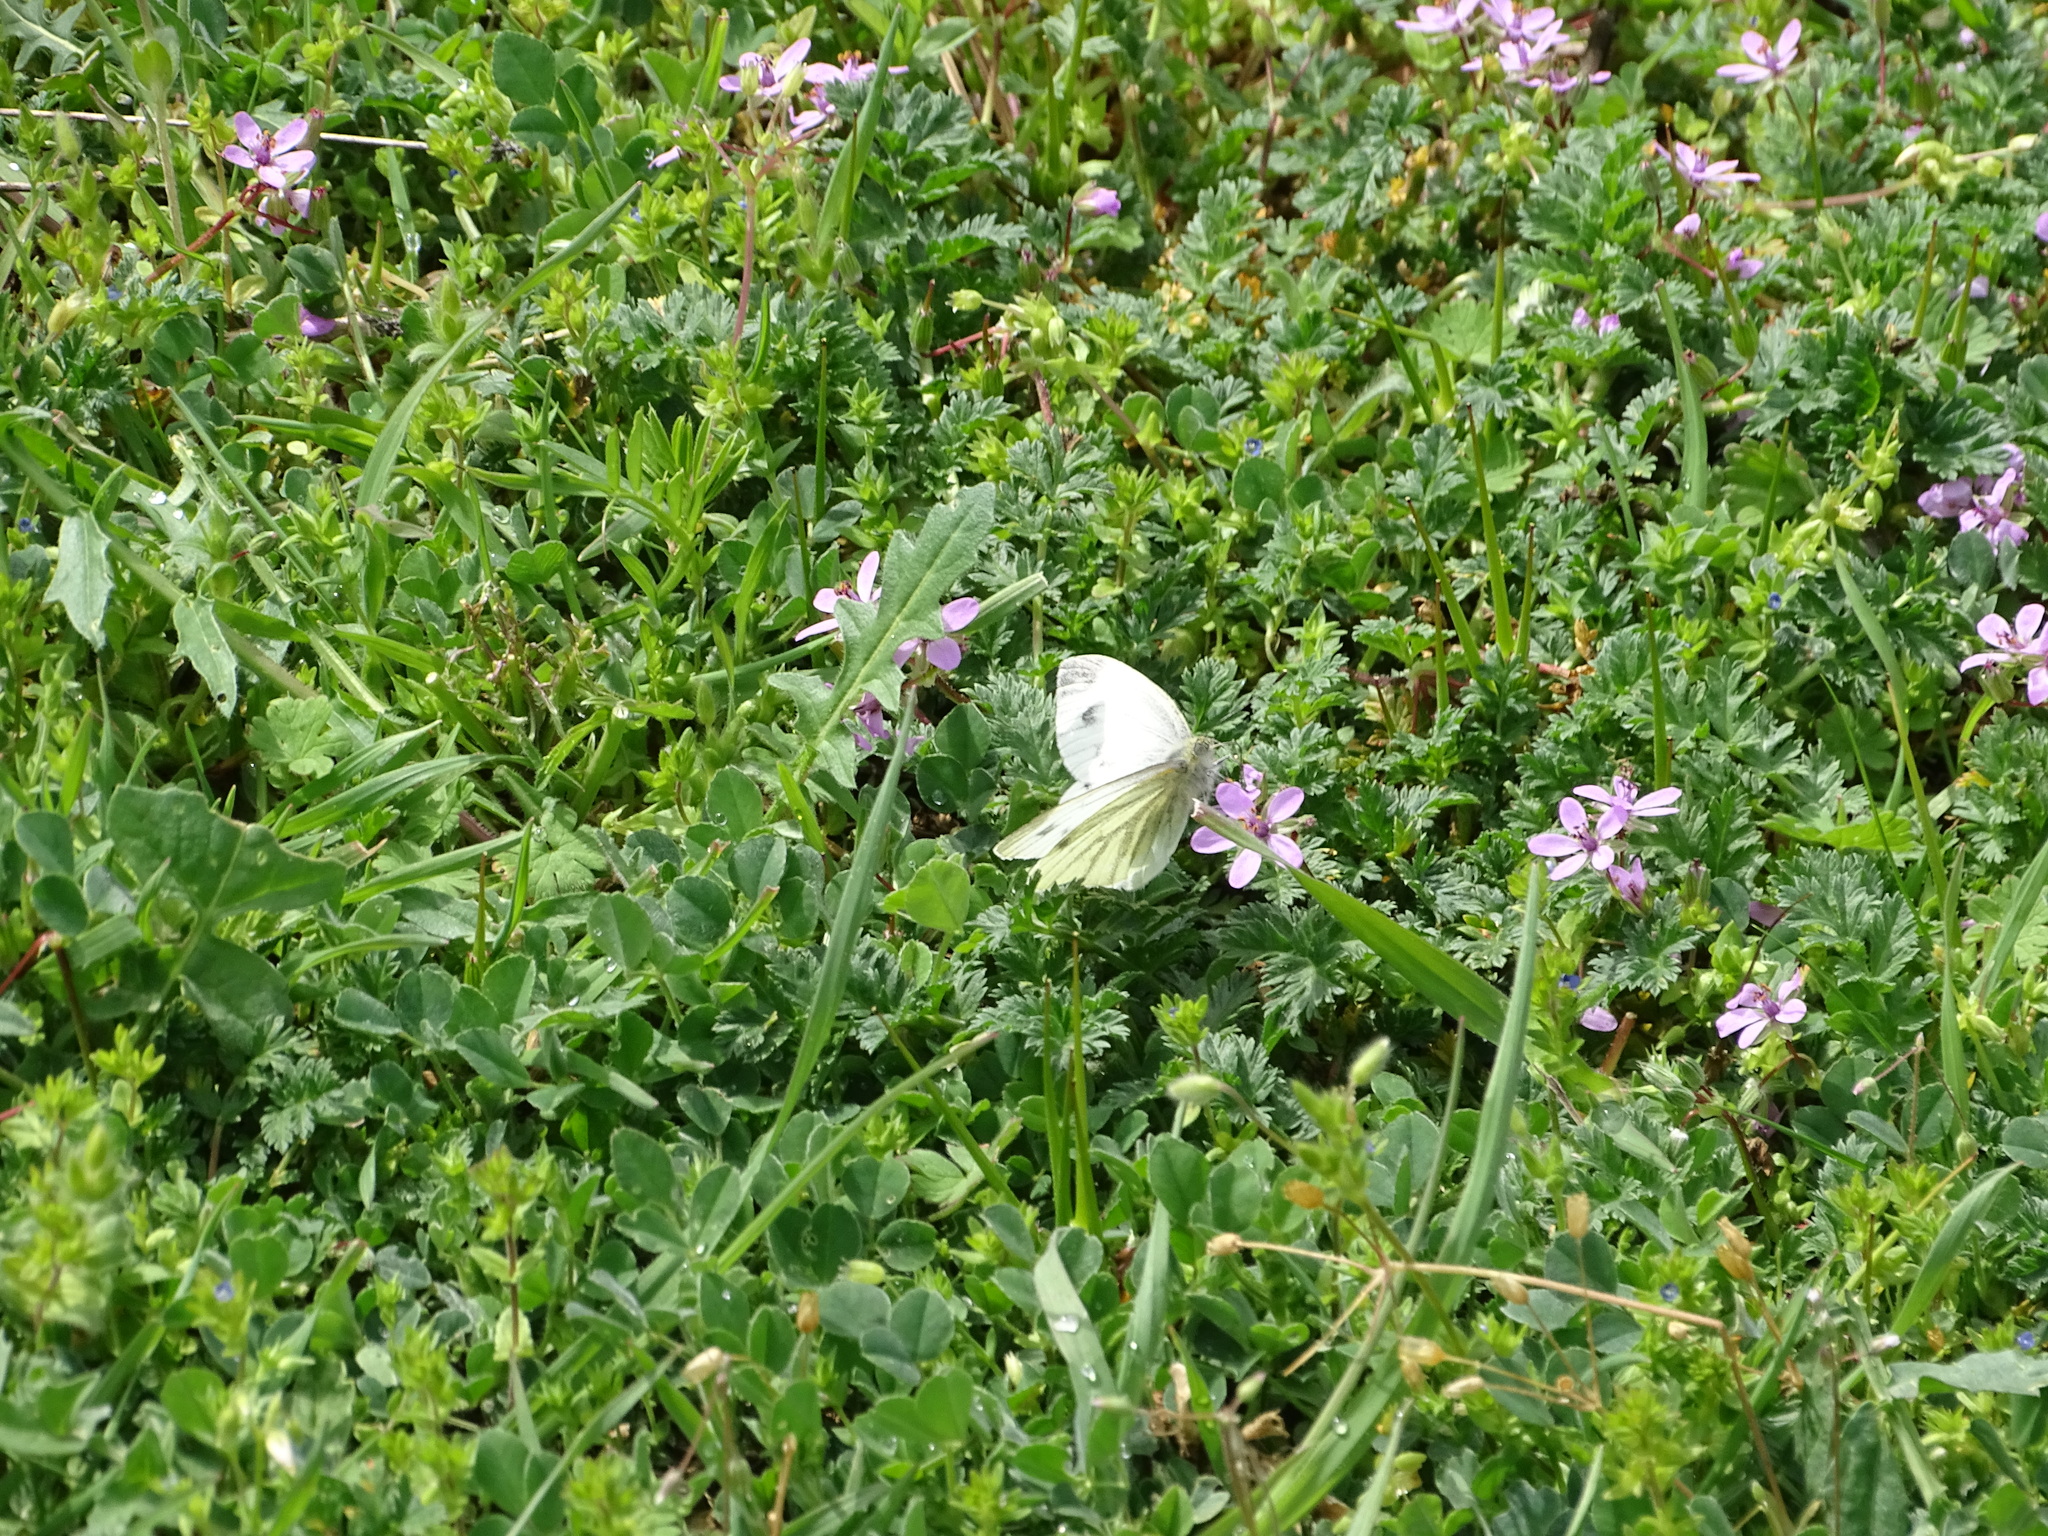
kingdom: Animalia
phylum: Arthropoda
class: Insecta
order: Lepidoptera
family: Pieridae
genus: Pieris
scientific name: Pieris napi
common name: Green-veined white
